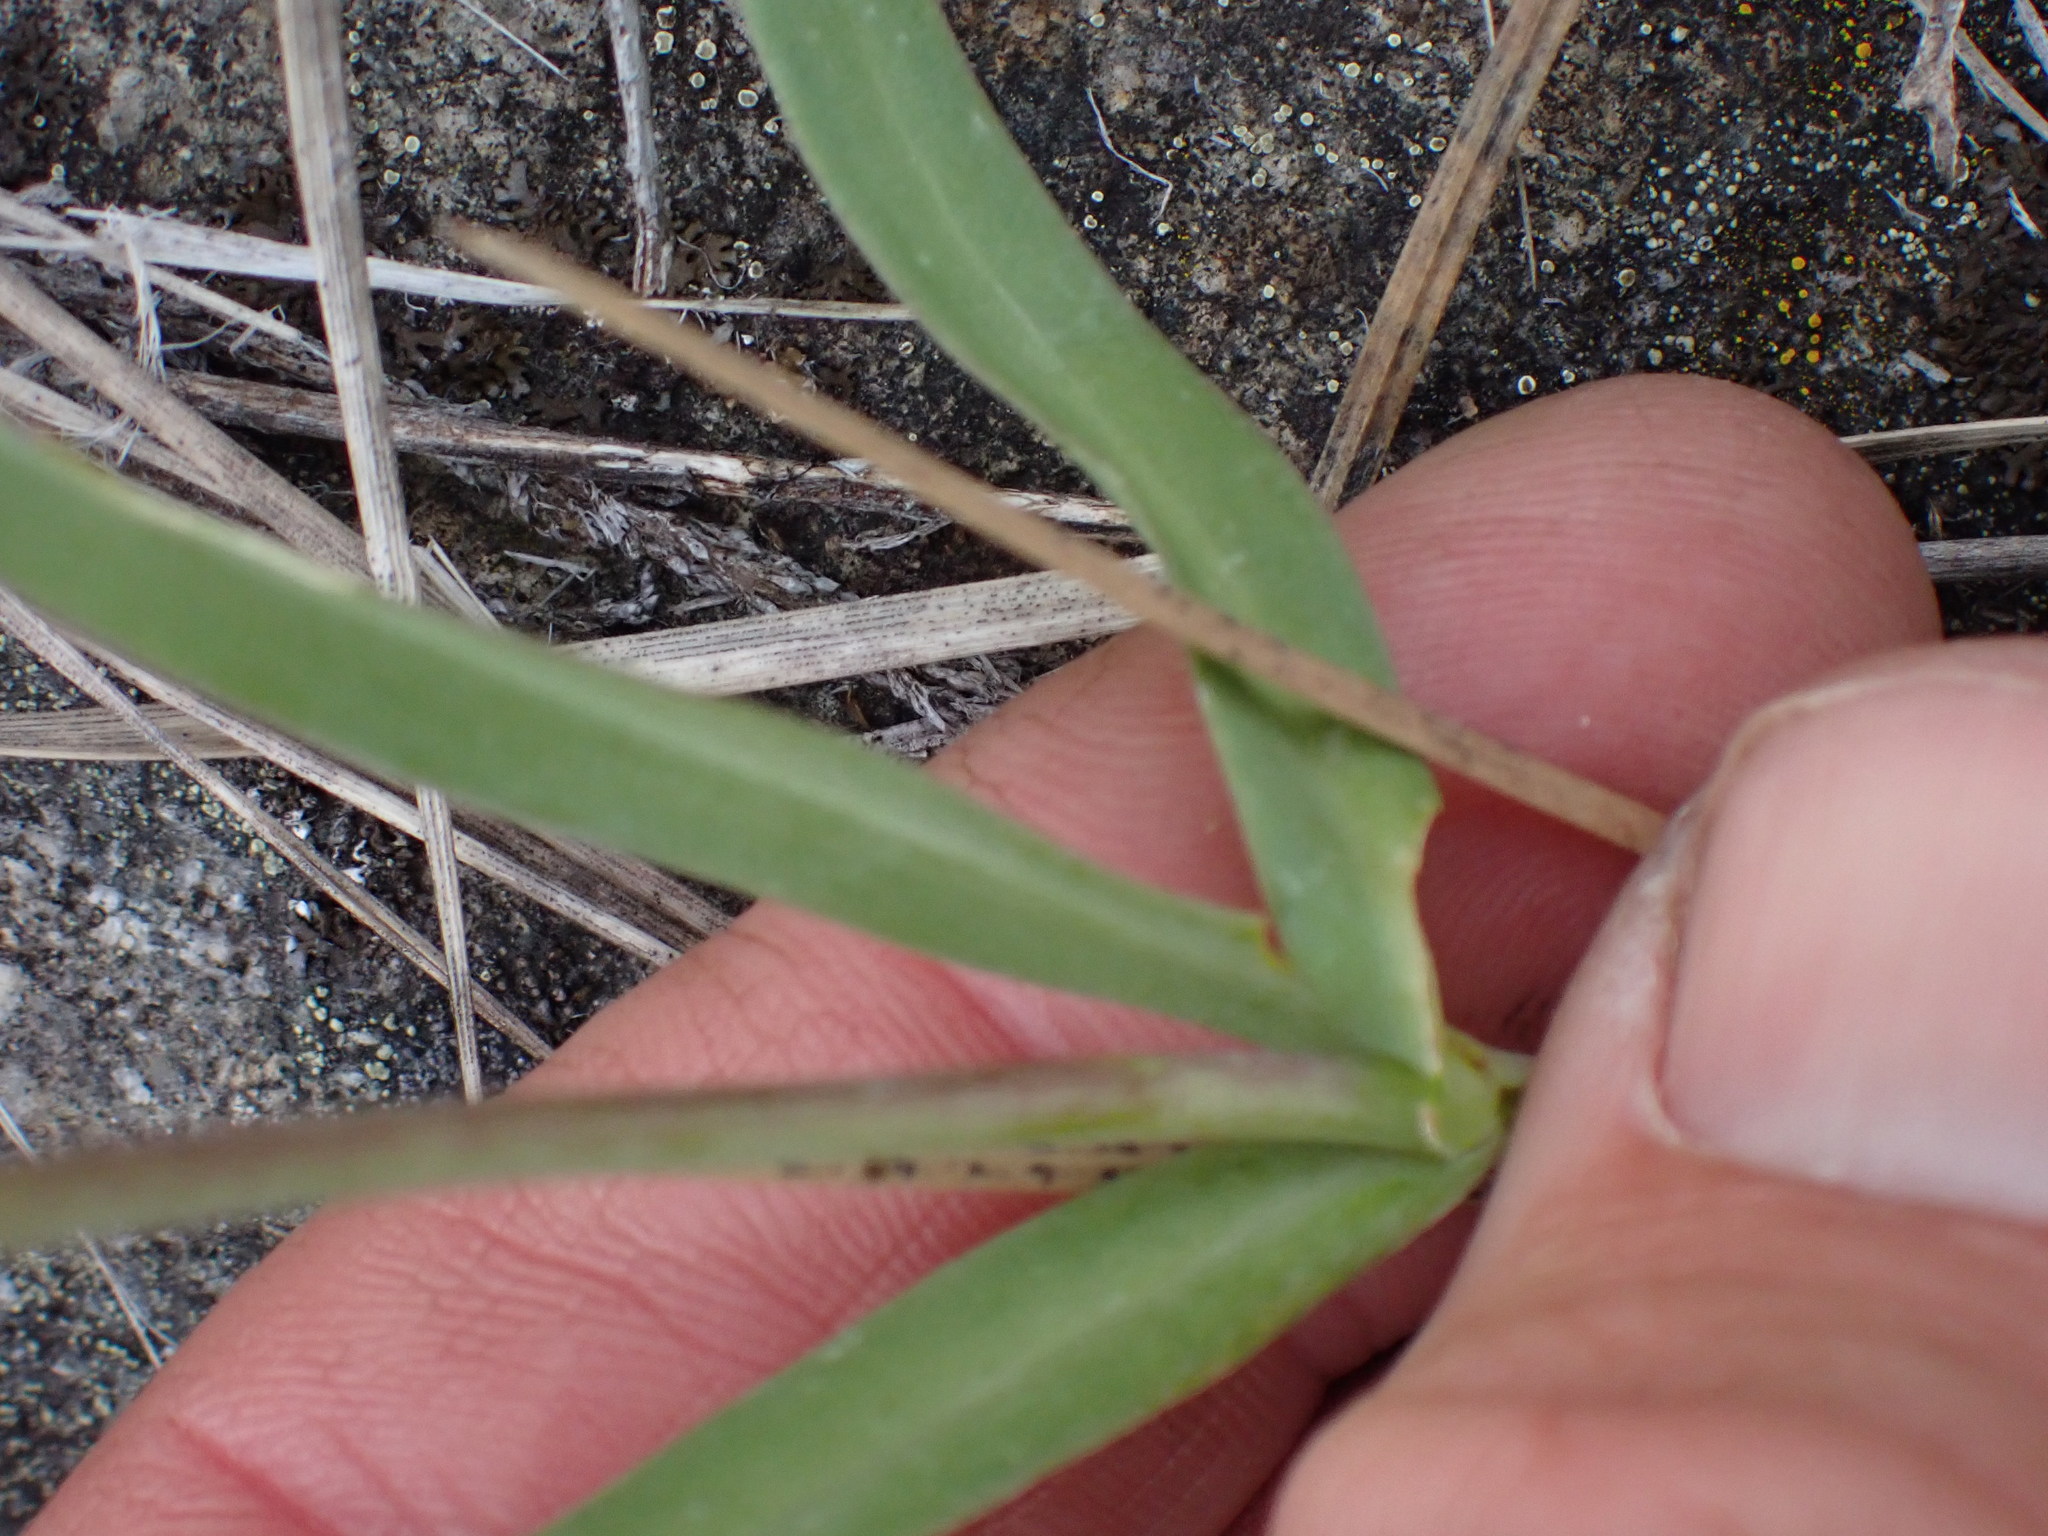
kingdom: Plantae
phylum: Tracheophyta
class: Liliopsida
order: Liliales
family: Liliaceae
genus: Fritillaria
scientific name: Fritillaria affinis
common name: Ojai fritillary
